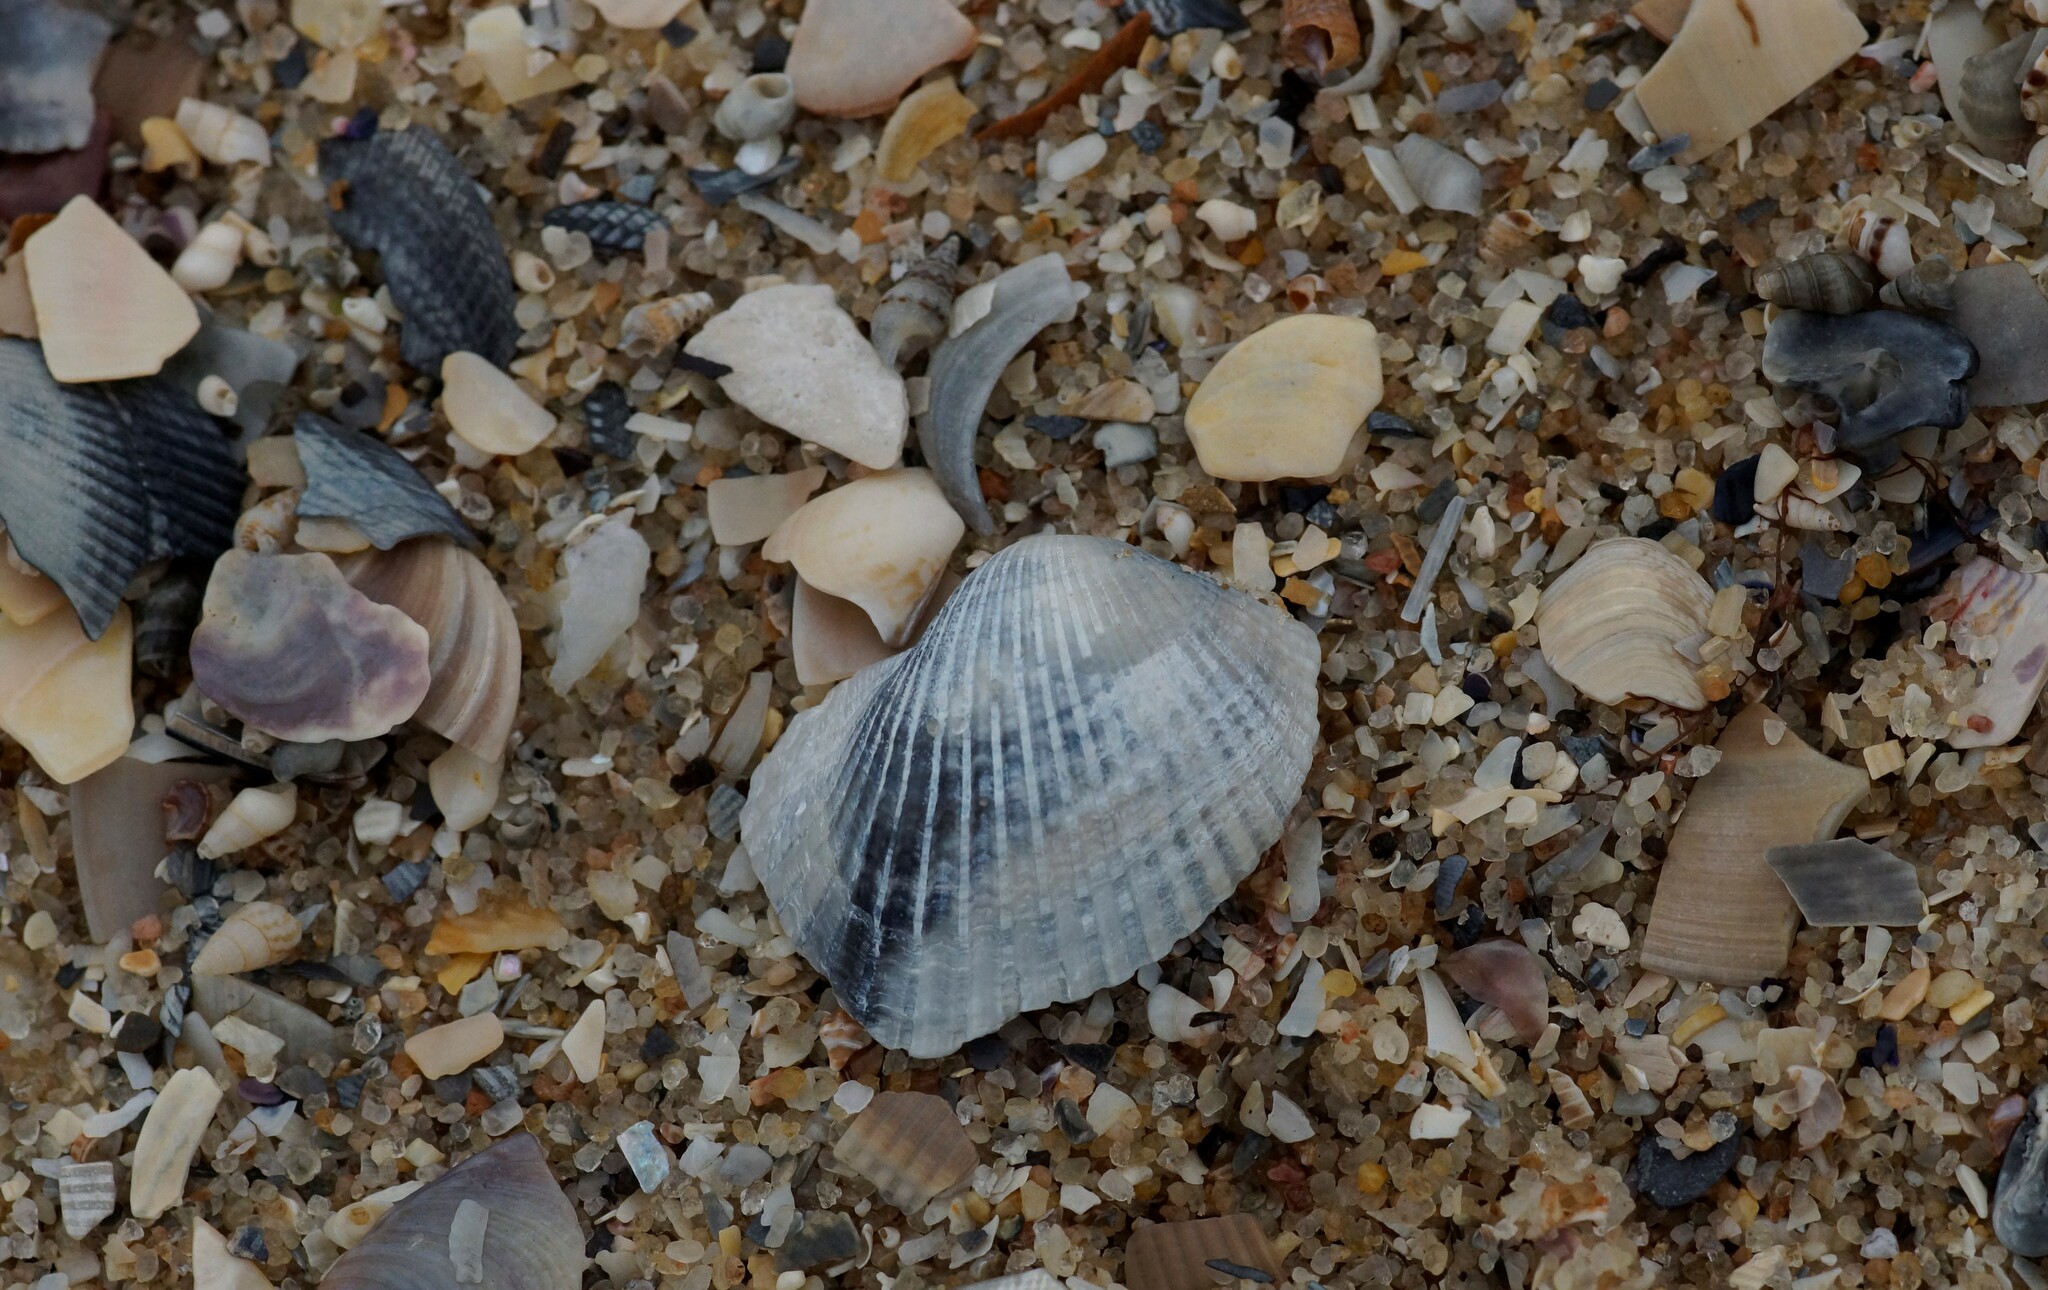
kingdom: Animalia
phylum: Mollusca
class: Bivalvia
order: Arcida
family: Arcidae
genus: Anadara
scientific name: Anadara trapezia
